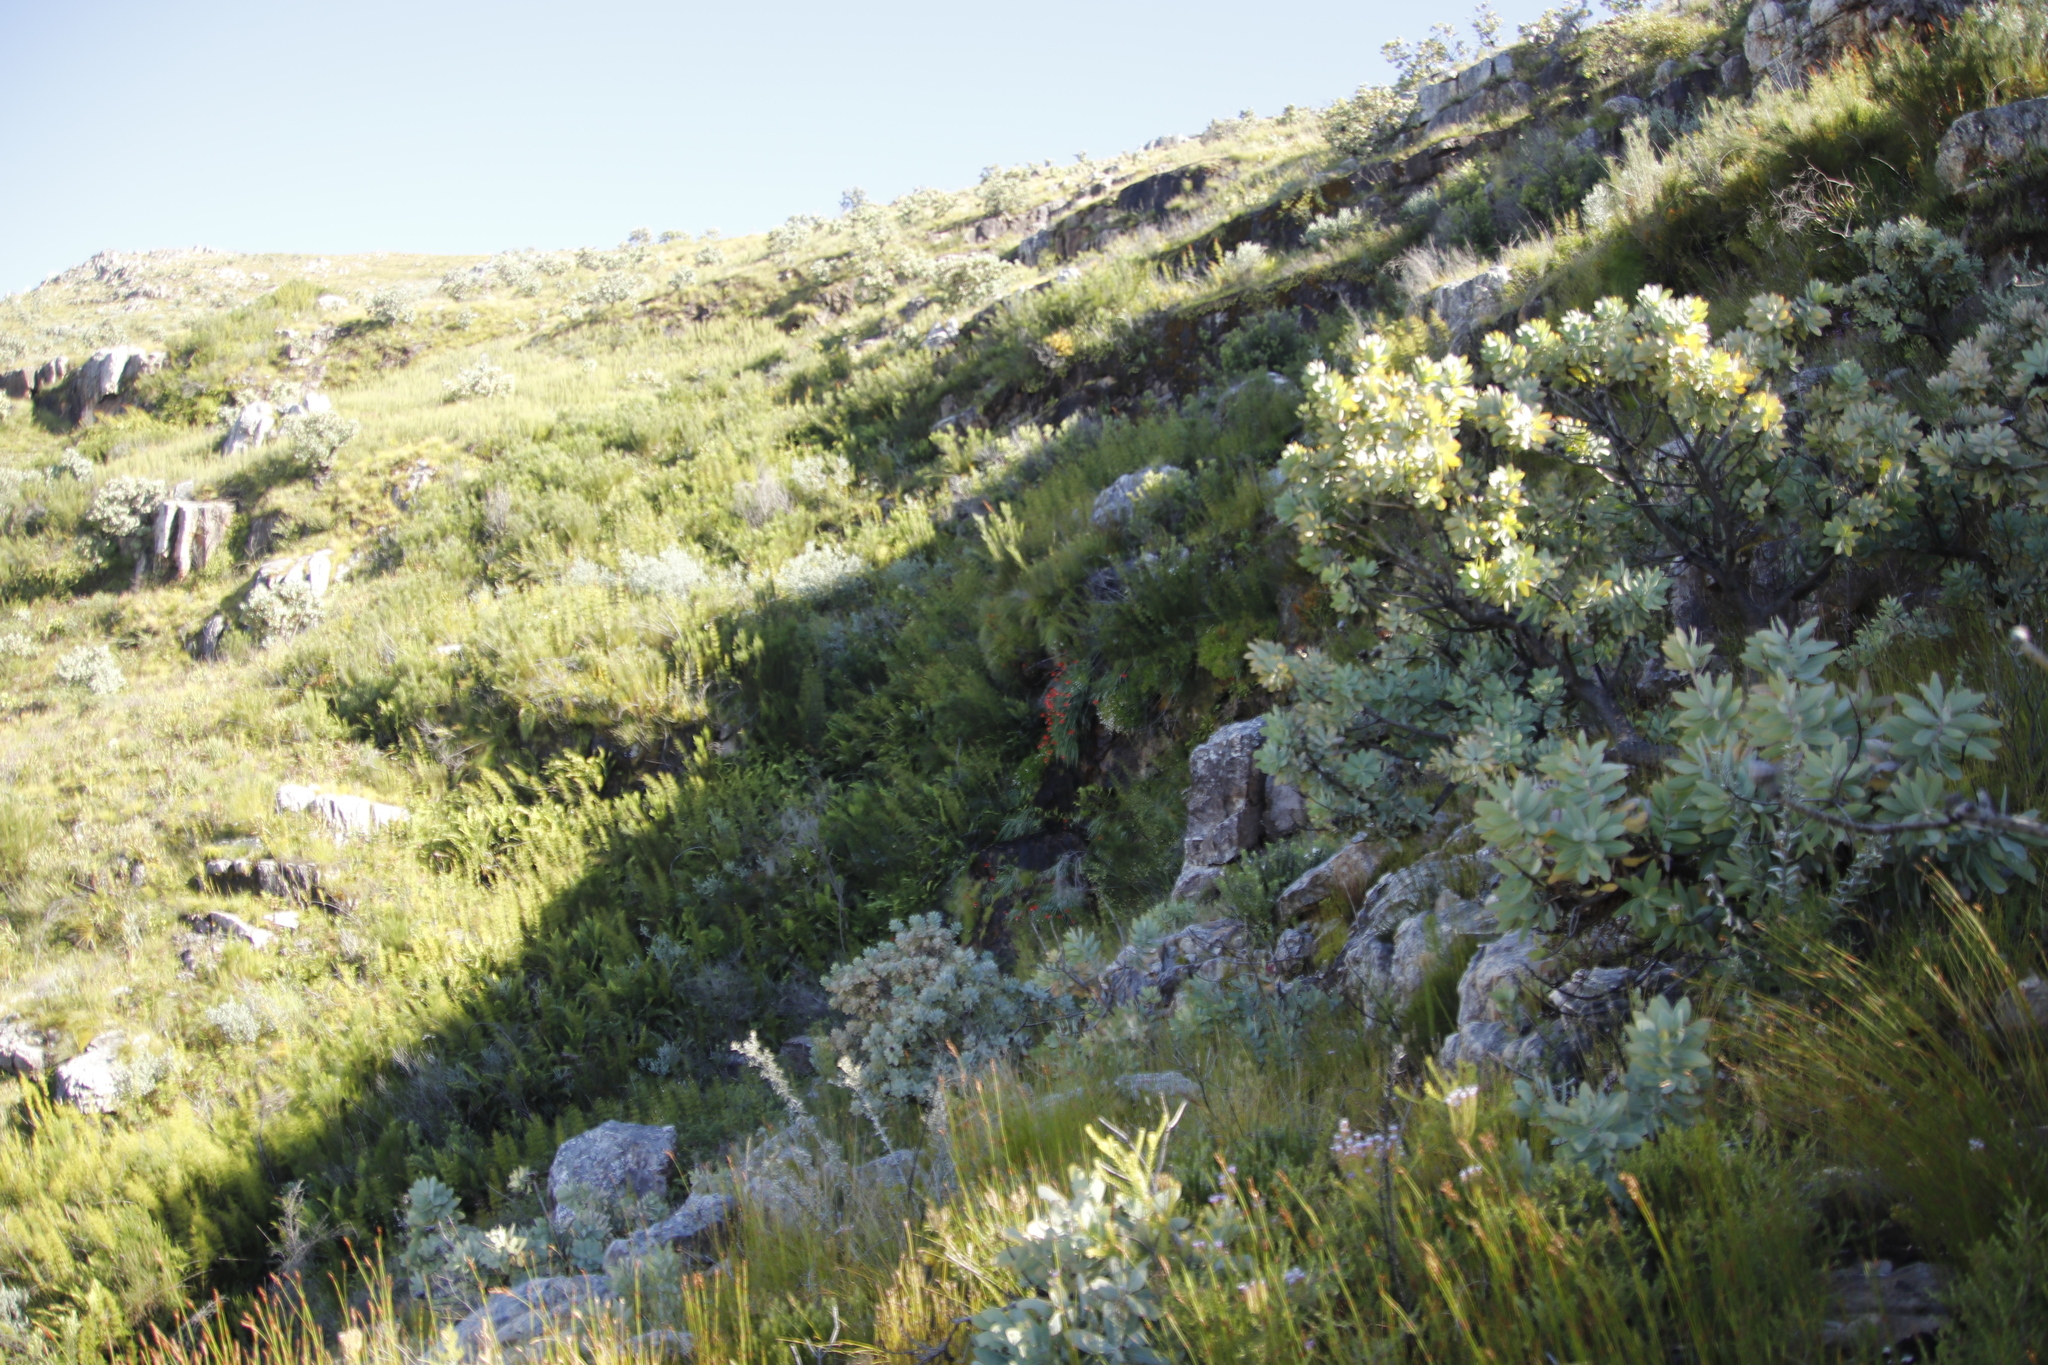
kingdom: Plantae
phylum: Tracheophyta
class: Magnoliopsida
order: Proteales
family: Proteaceae
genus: Protea
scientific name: Protea nitida
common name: Tree protea
